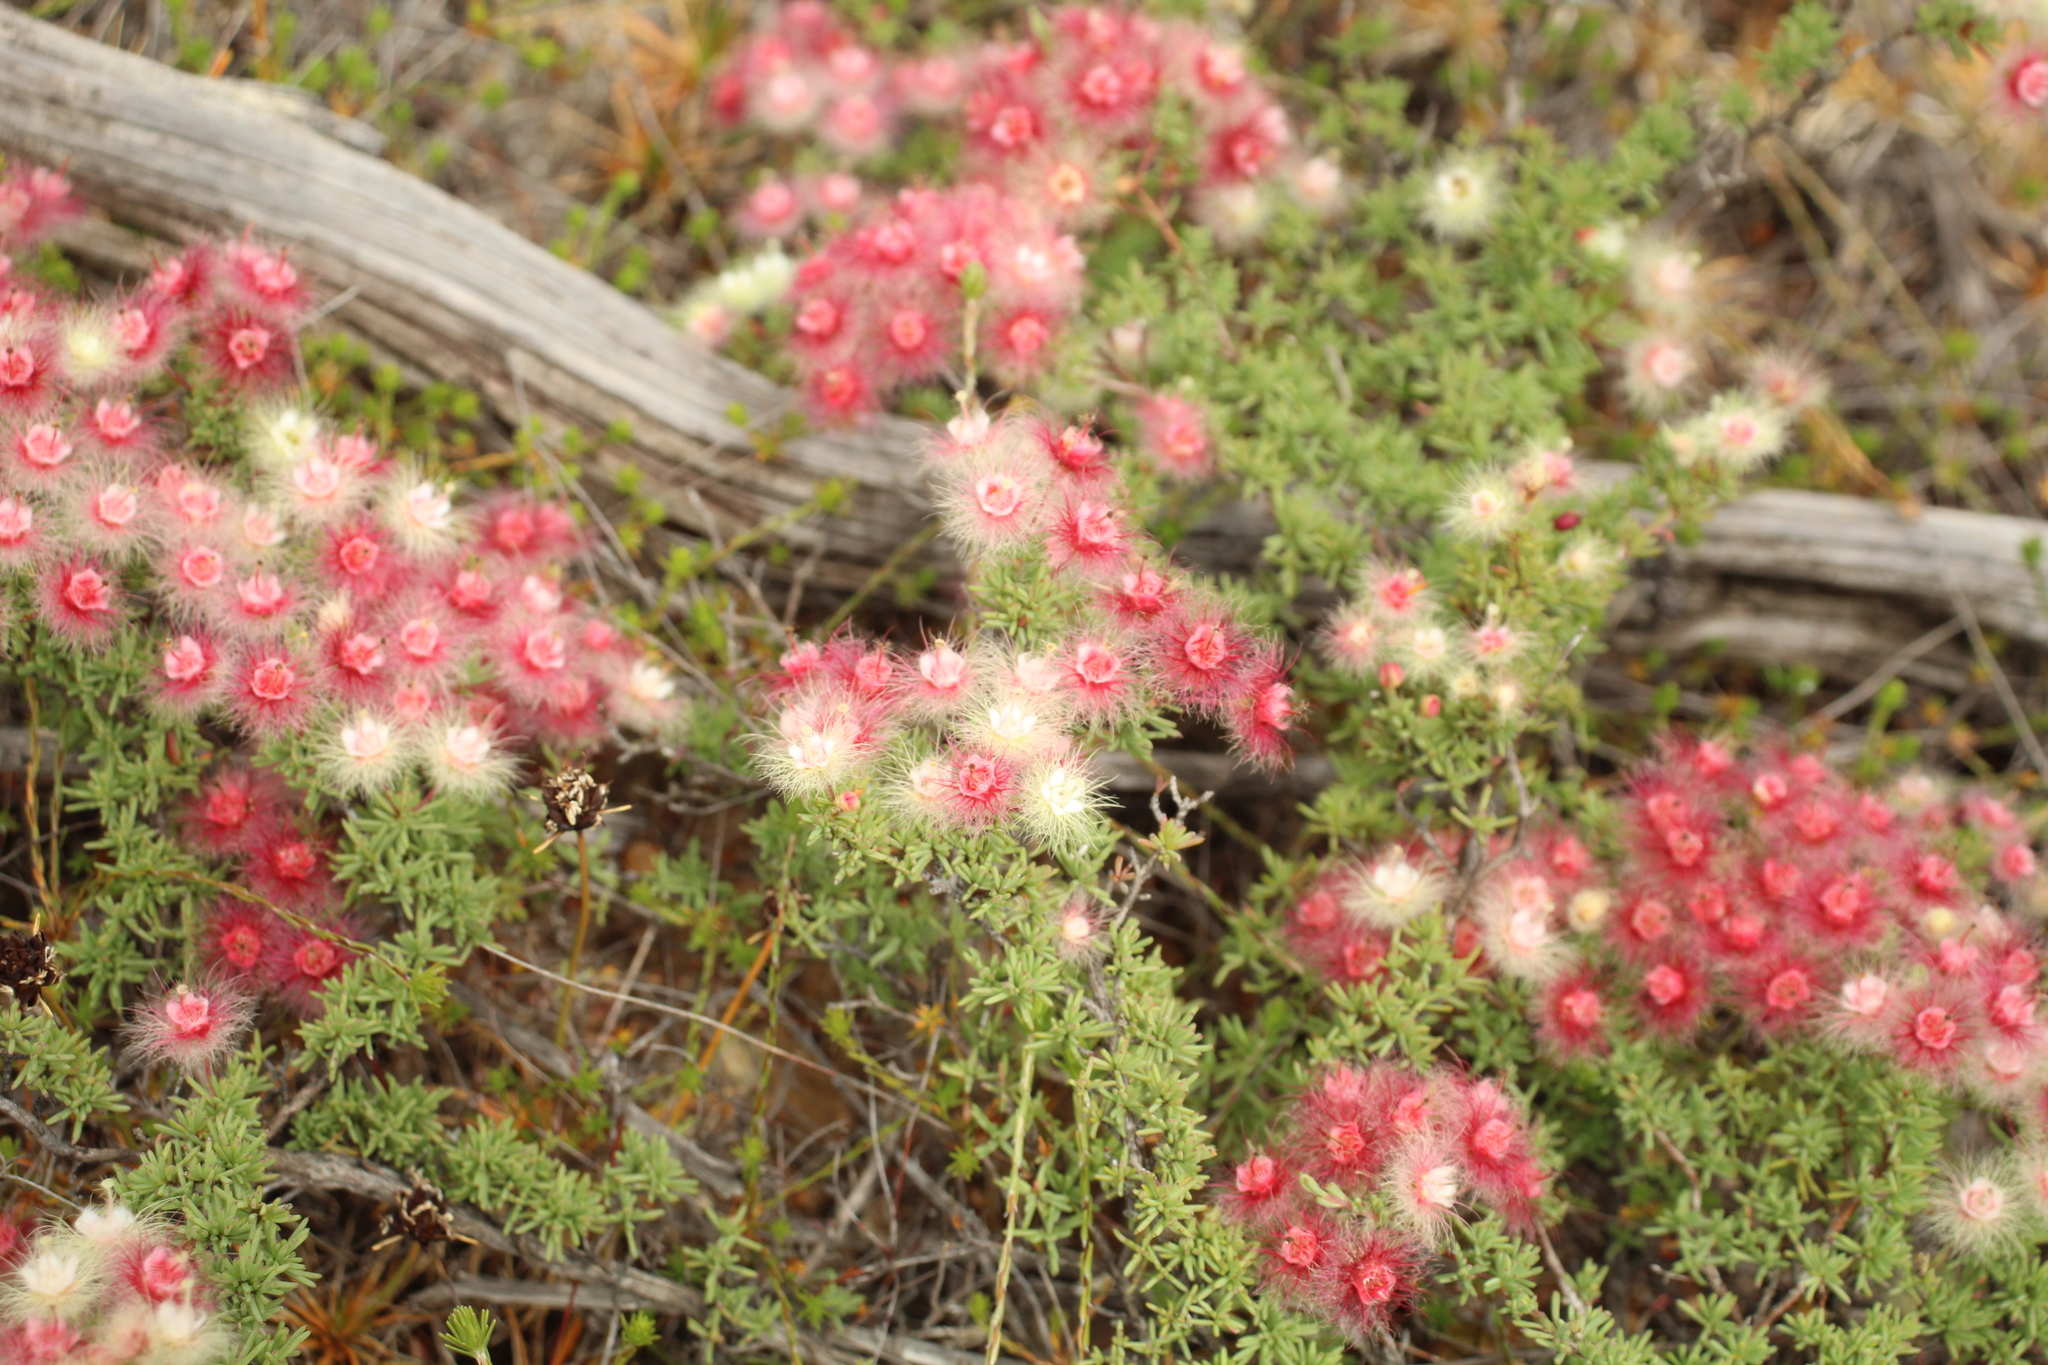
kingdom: Plantae
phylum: Tracheophyta
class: Magnoliopsida
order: Myrtales
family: Myrtaceae
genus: Verticordia
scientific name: Verticordia huegelii
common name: Variegate feather-flower
